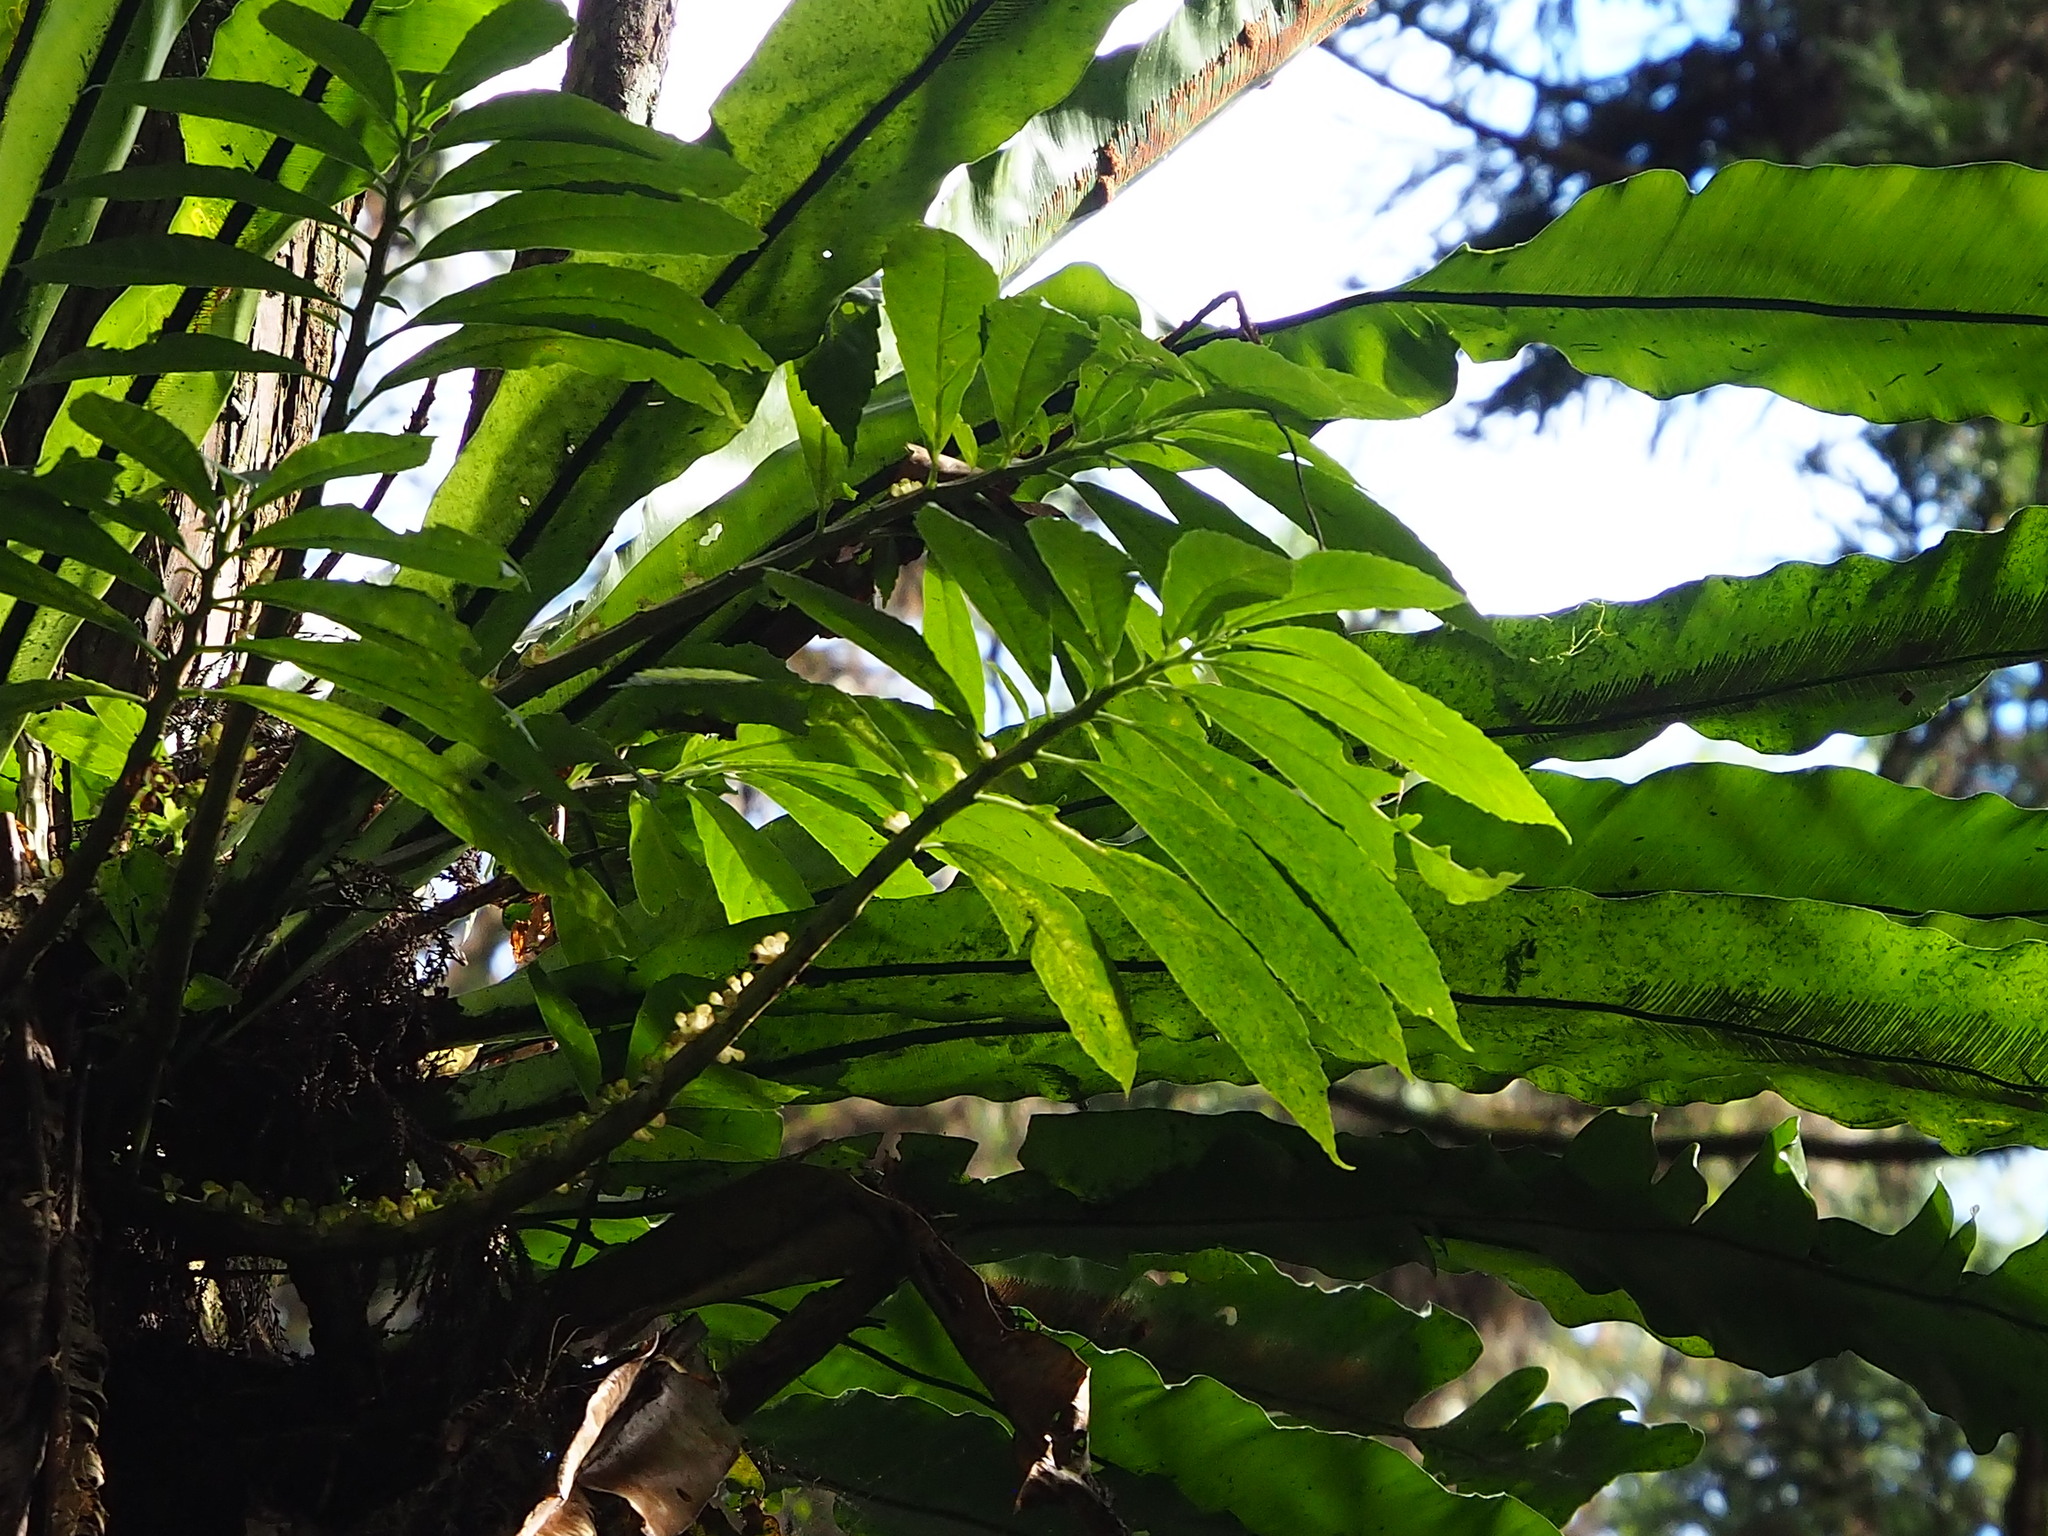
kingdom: Plantae
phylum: Tracheophyta
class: Magnoliopsida
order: Rosales
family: Urticaceae
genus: Procris
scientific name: Procris
